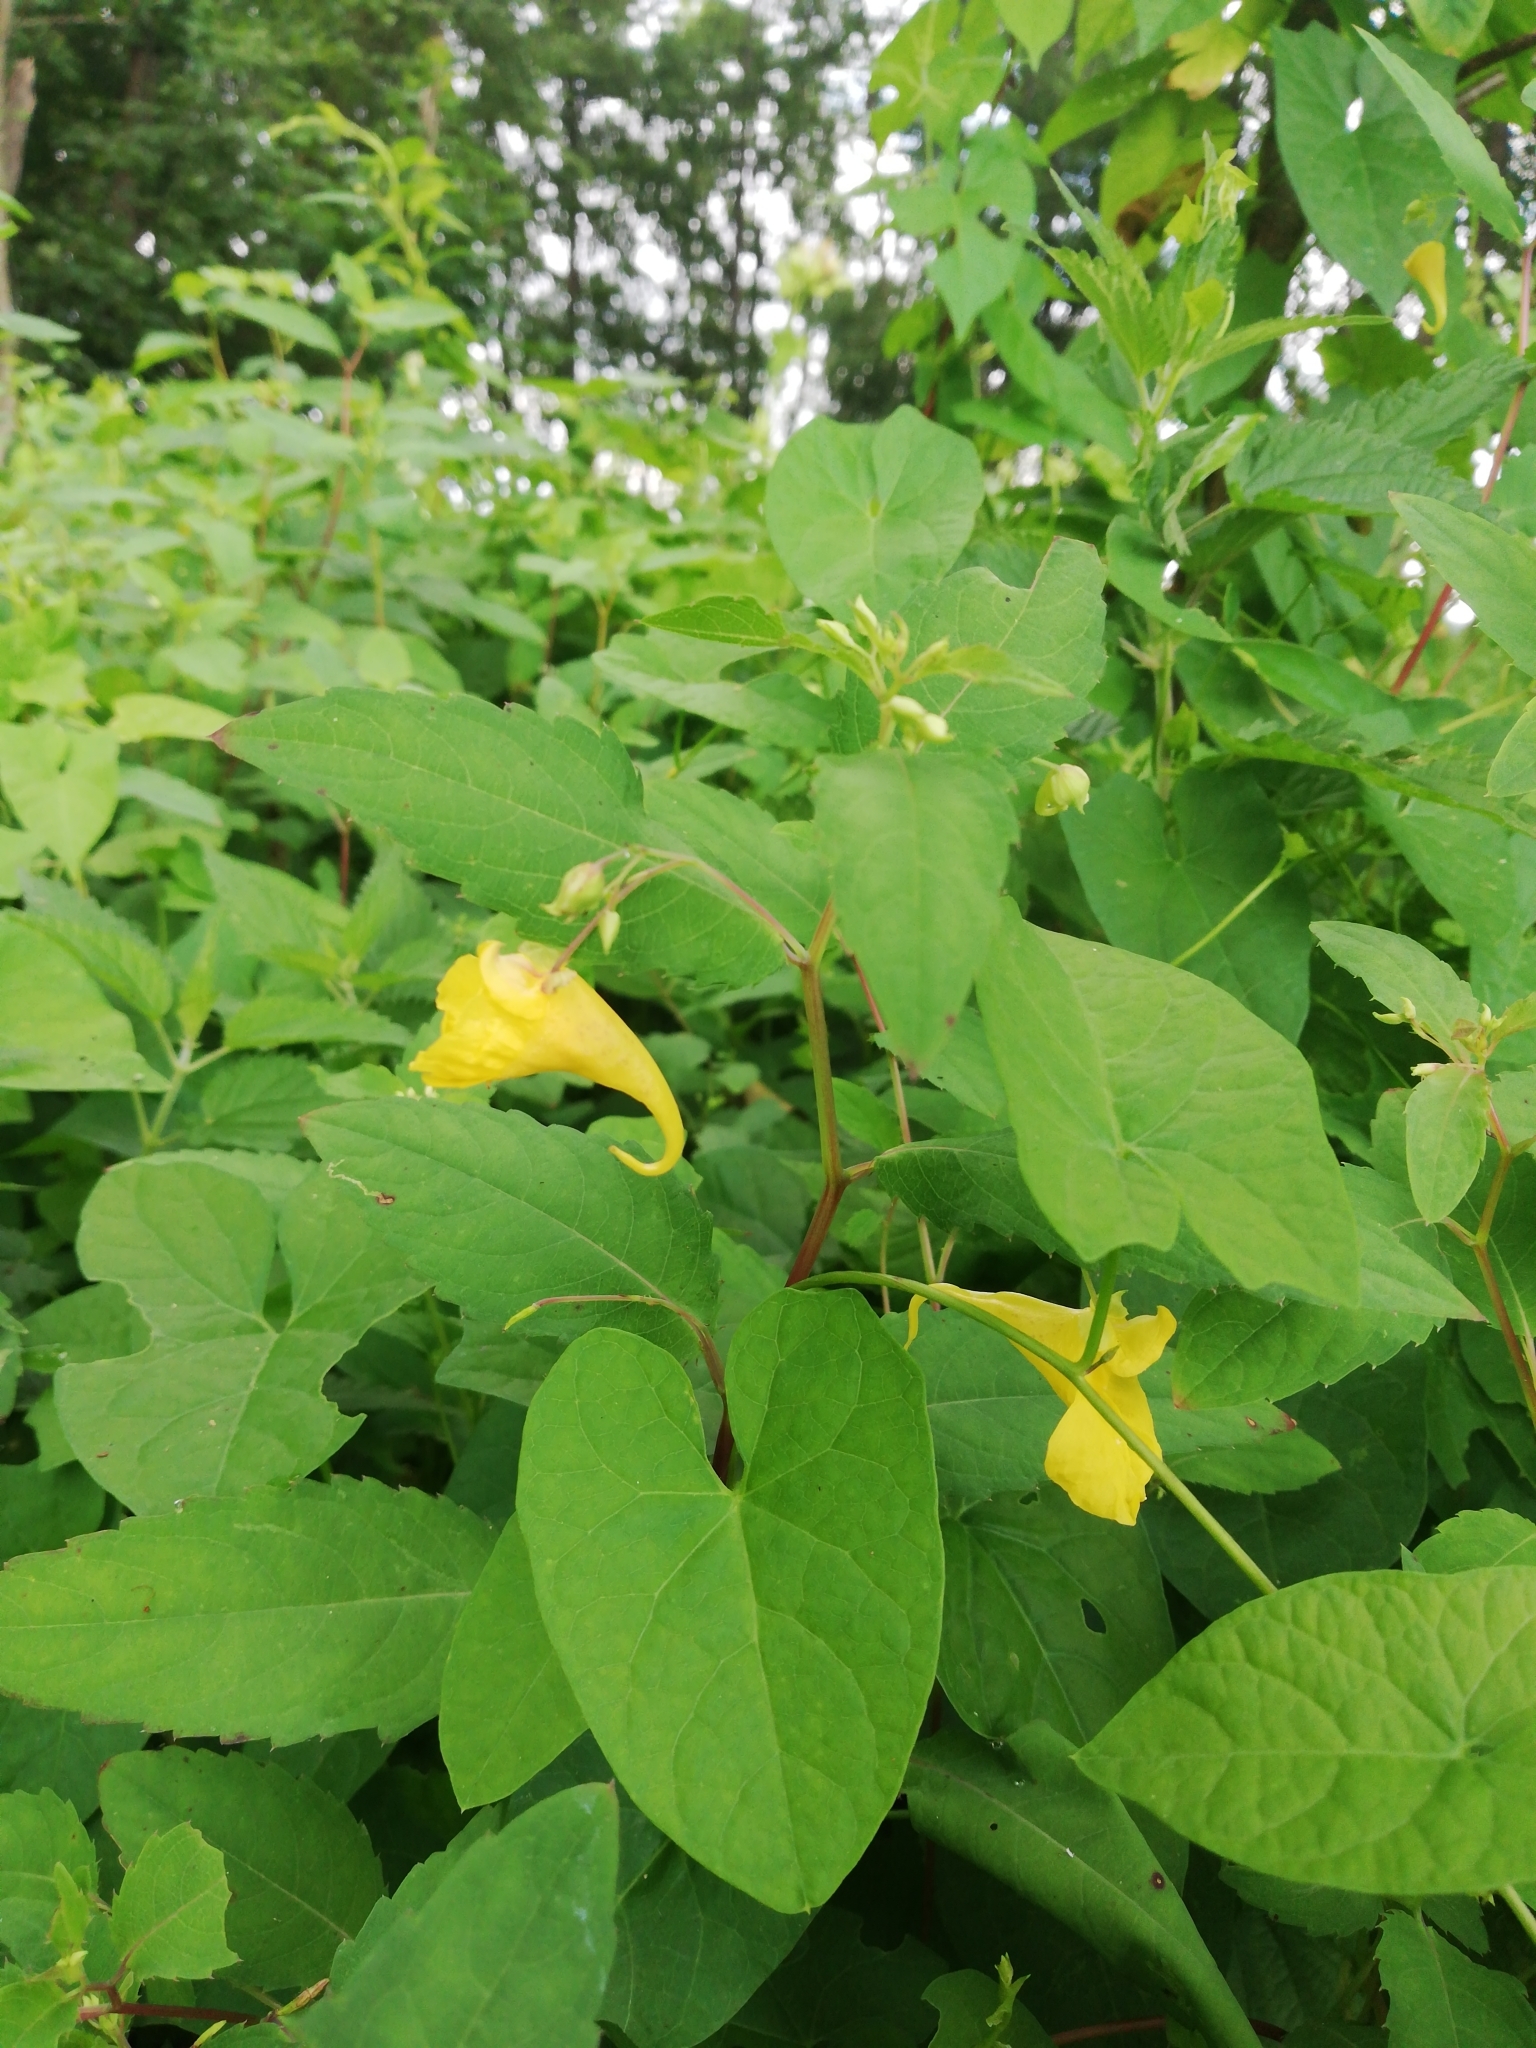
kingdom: Plantae
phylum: Tracheophyta
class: Magnoliopsida
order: Ericales
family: Balsaminaceae
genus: Impatiens
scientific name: Impatiens noli-tangere
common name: Touch-me-not balsam
